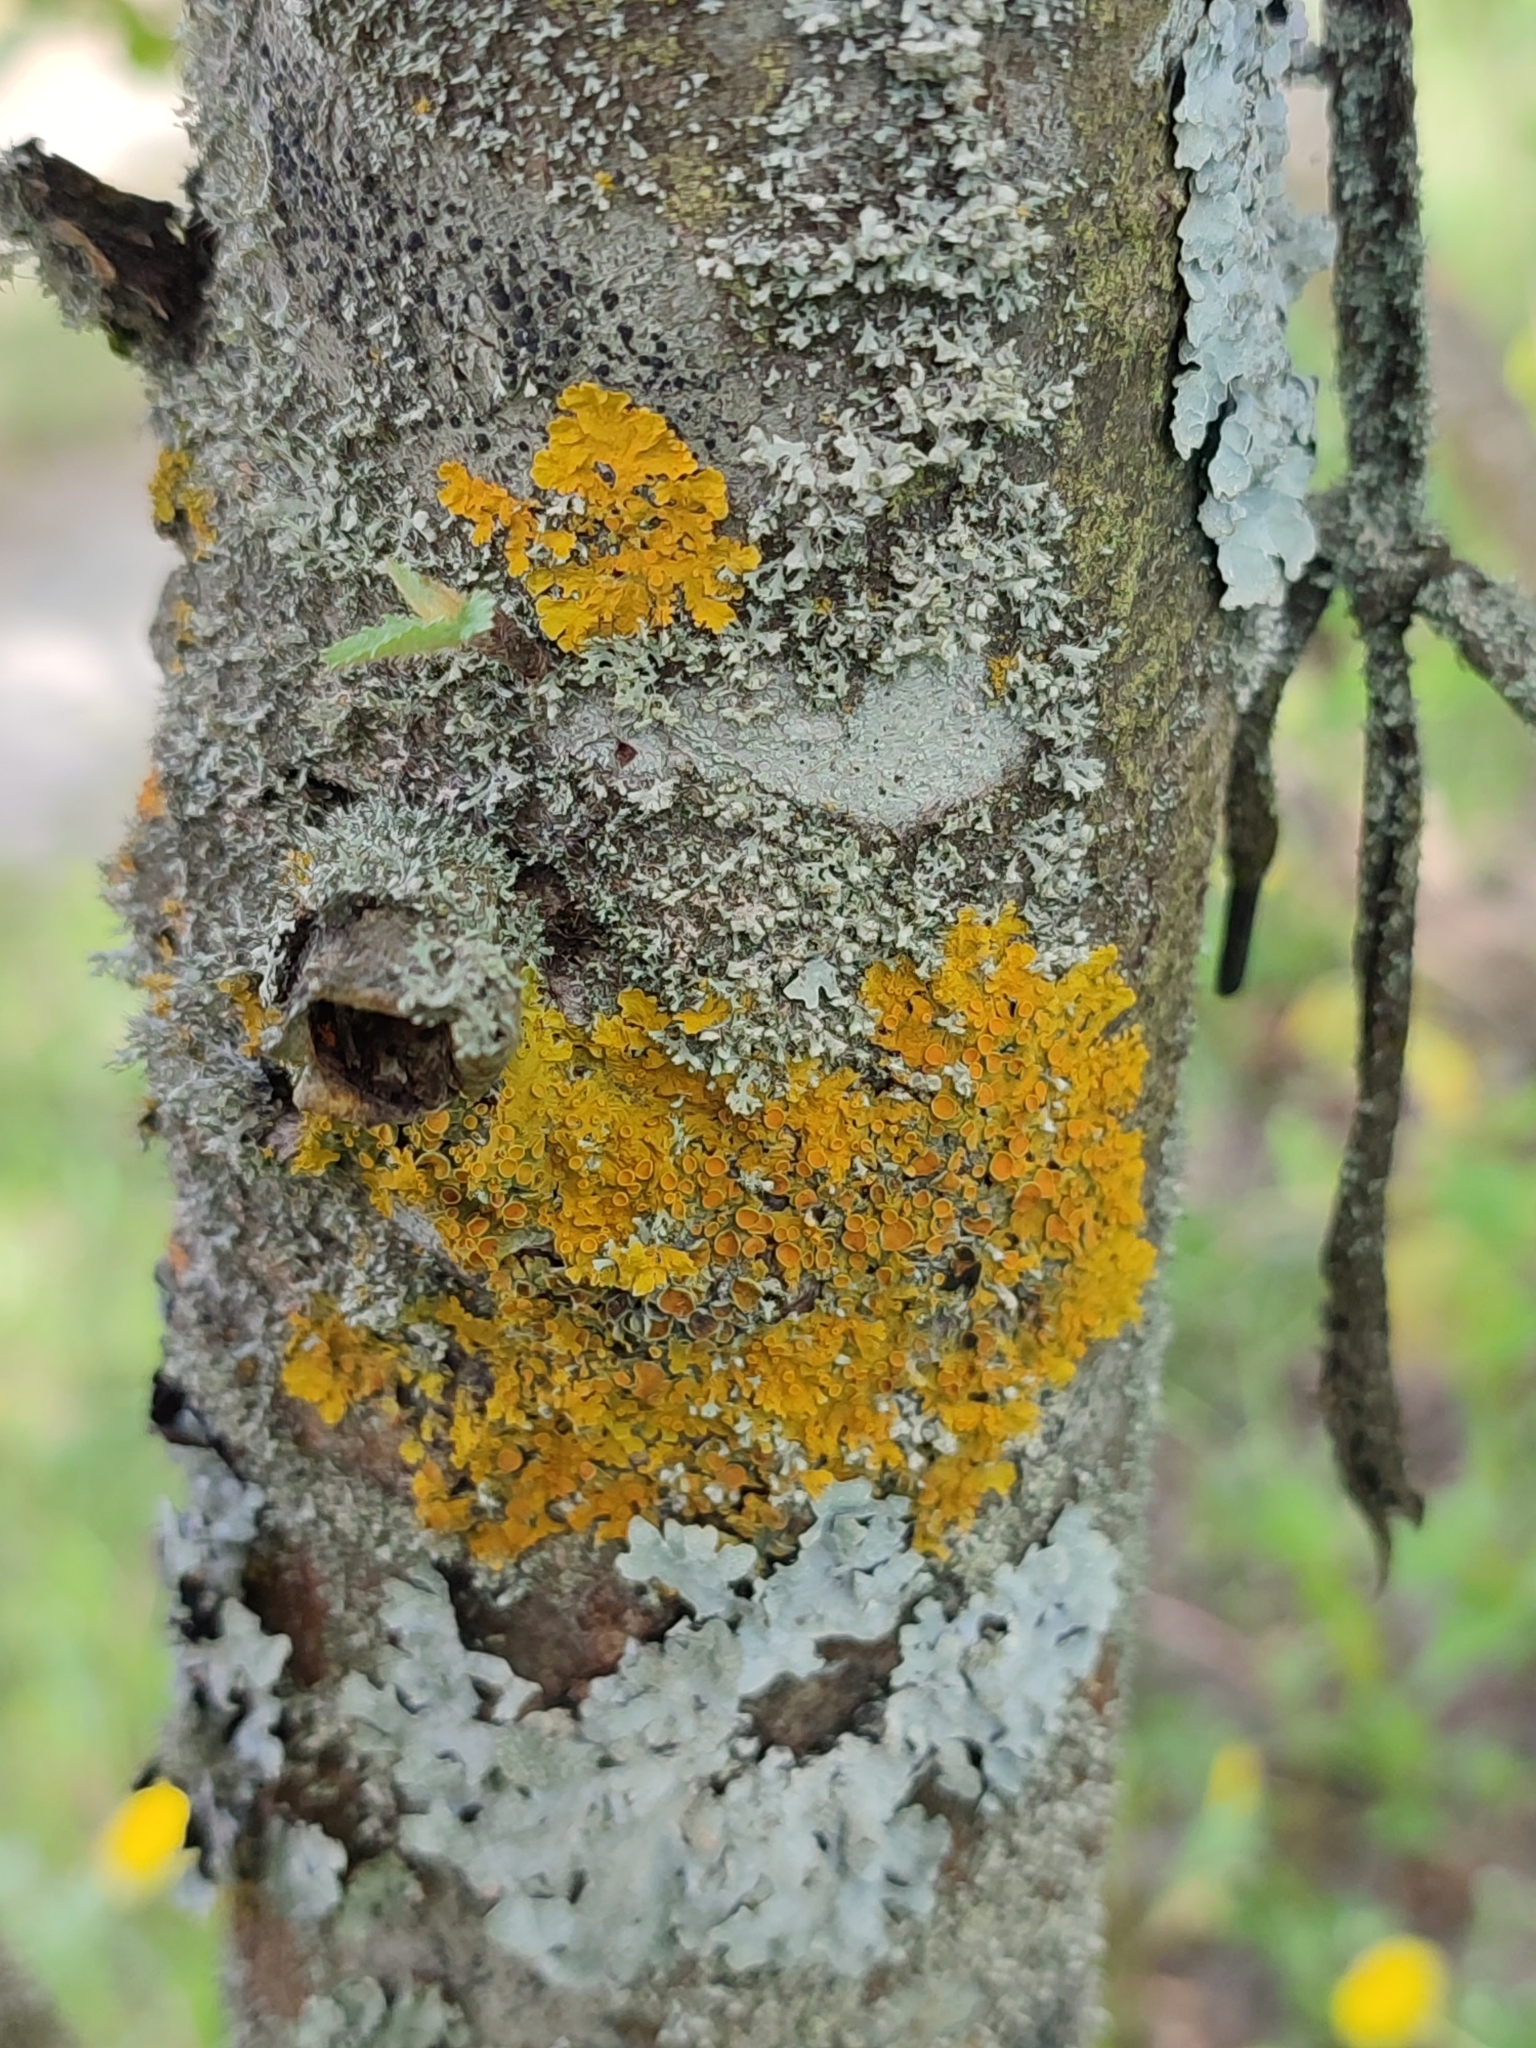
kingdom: Fungi
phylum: Ascomycota
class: Lecanoromycetes
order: Teloschistales
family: Teloschistaceae
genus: Xanthoria
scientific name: Xanthoria parietina
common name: Common orange lichen
